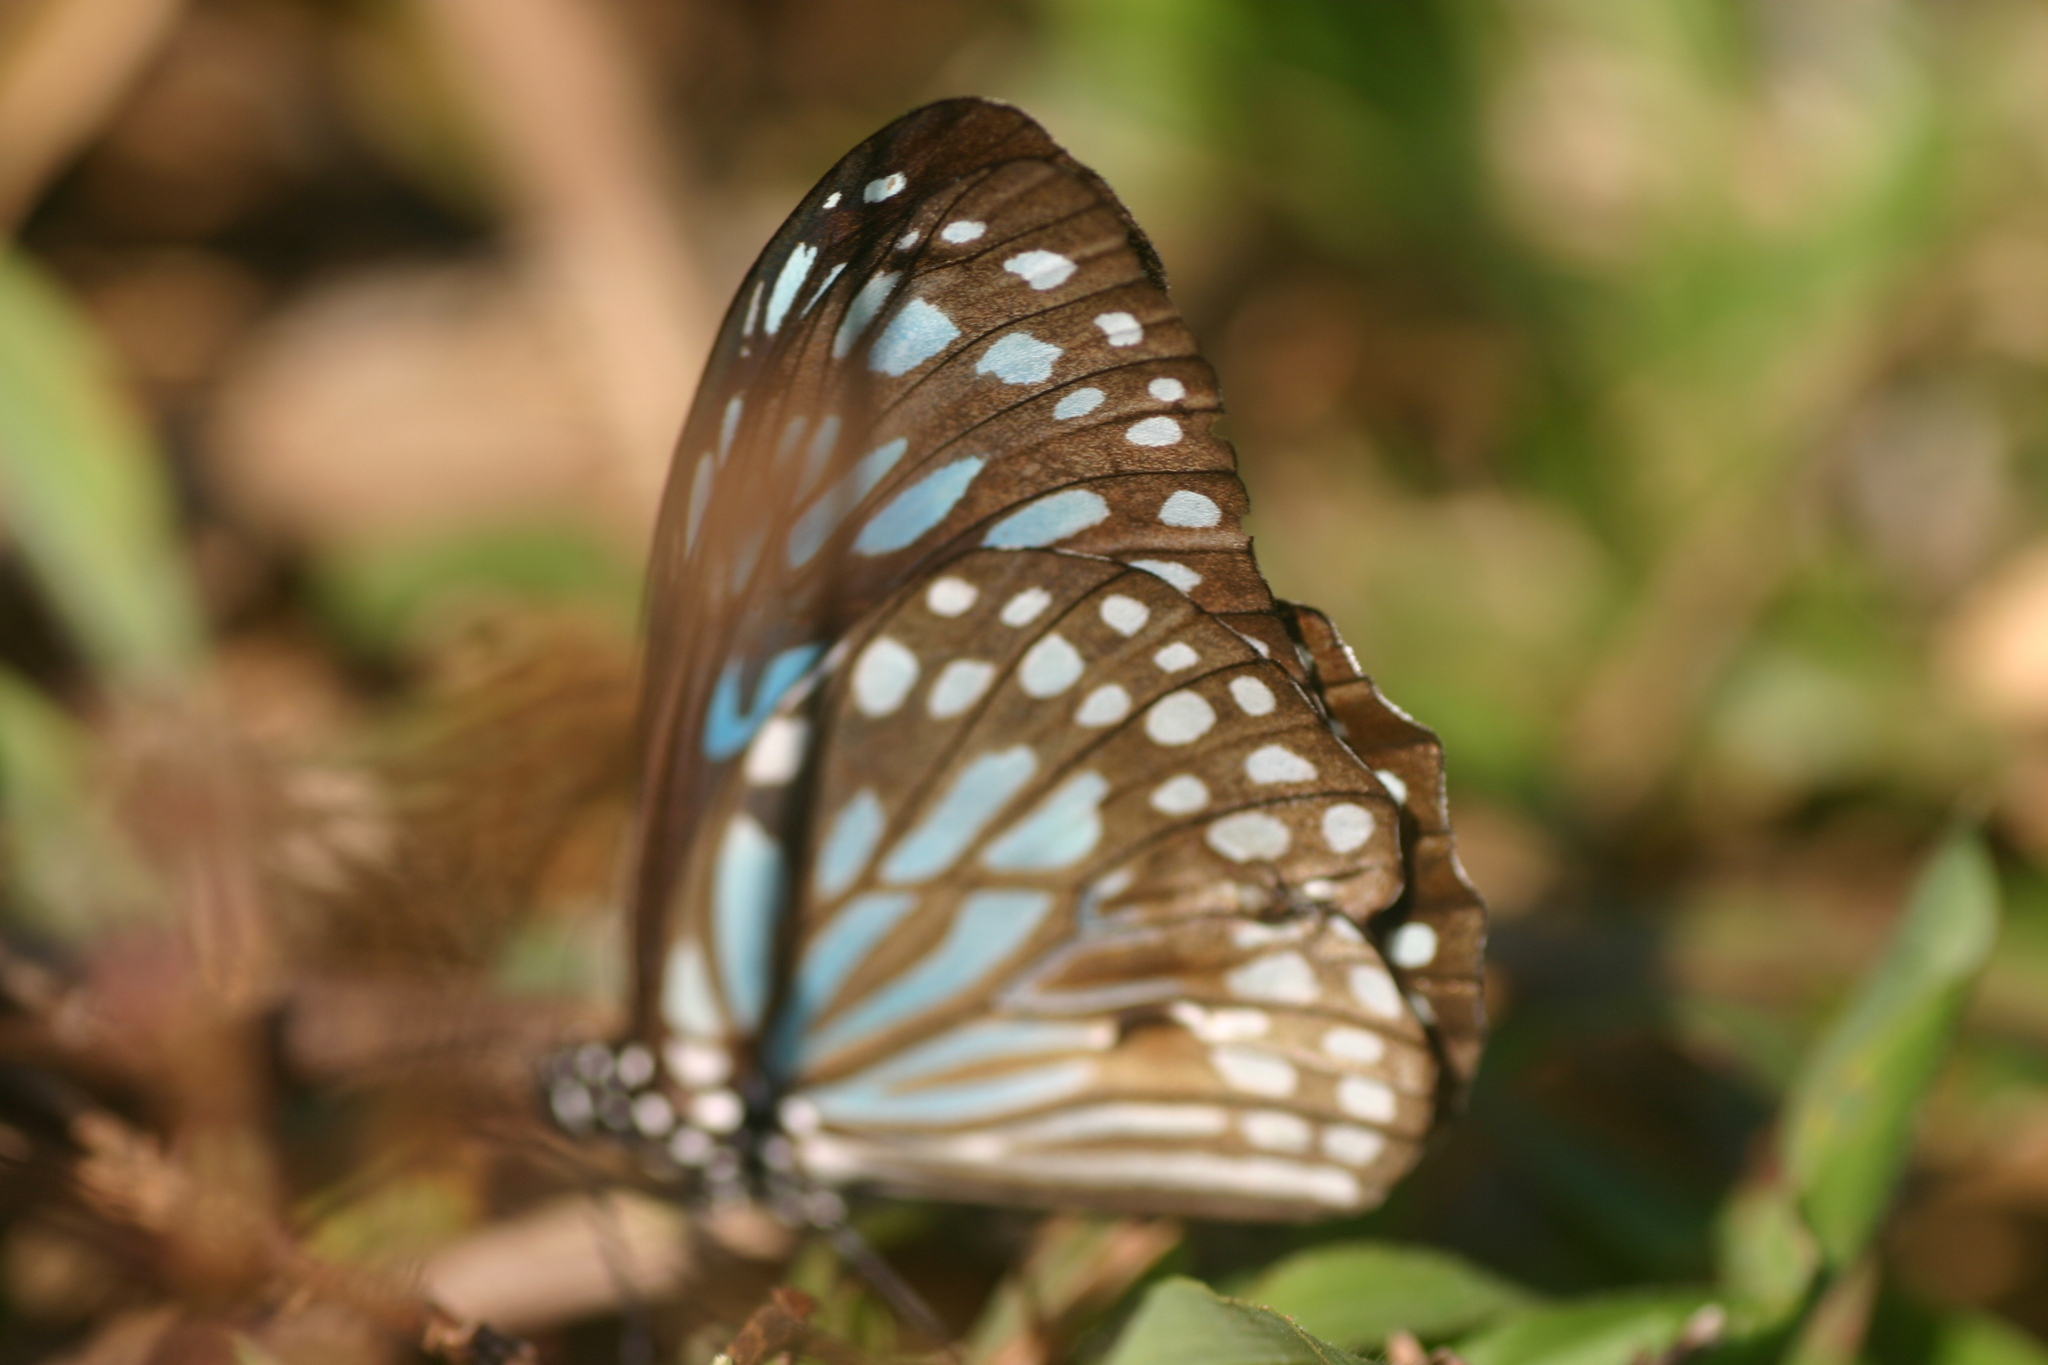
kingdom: Animalia
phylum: Arthropoda
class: Insecta
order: Lepidoptera
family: Nymphalidae
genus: Tirumala
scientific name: Tirumala septentrionis
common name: Dark blue tiger butterfly
